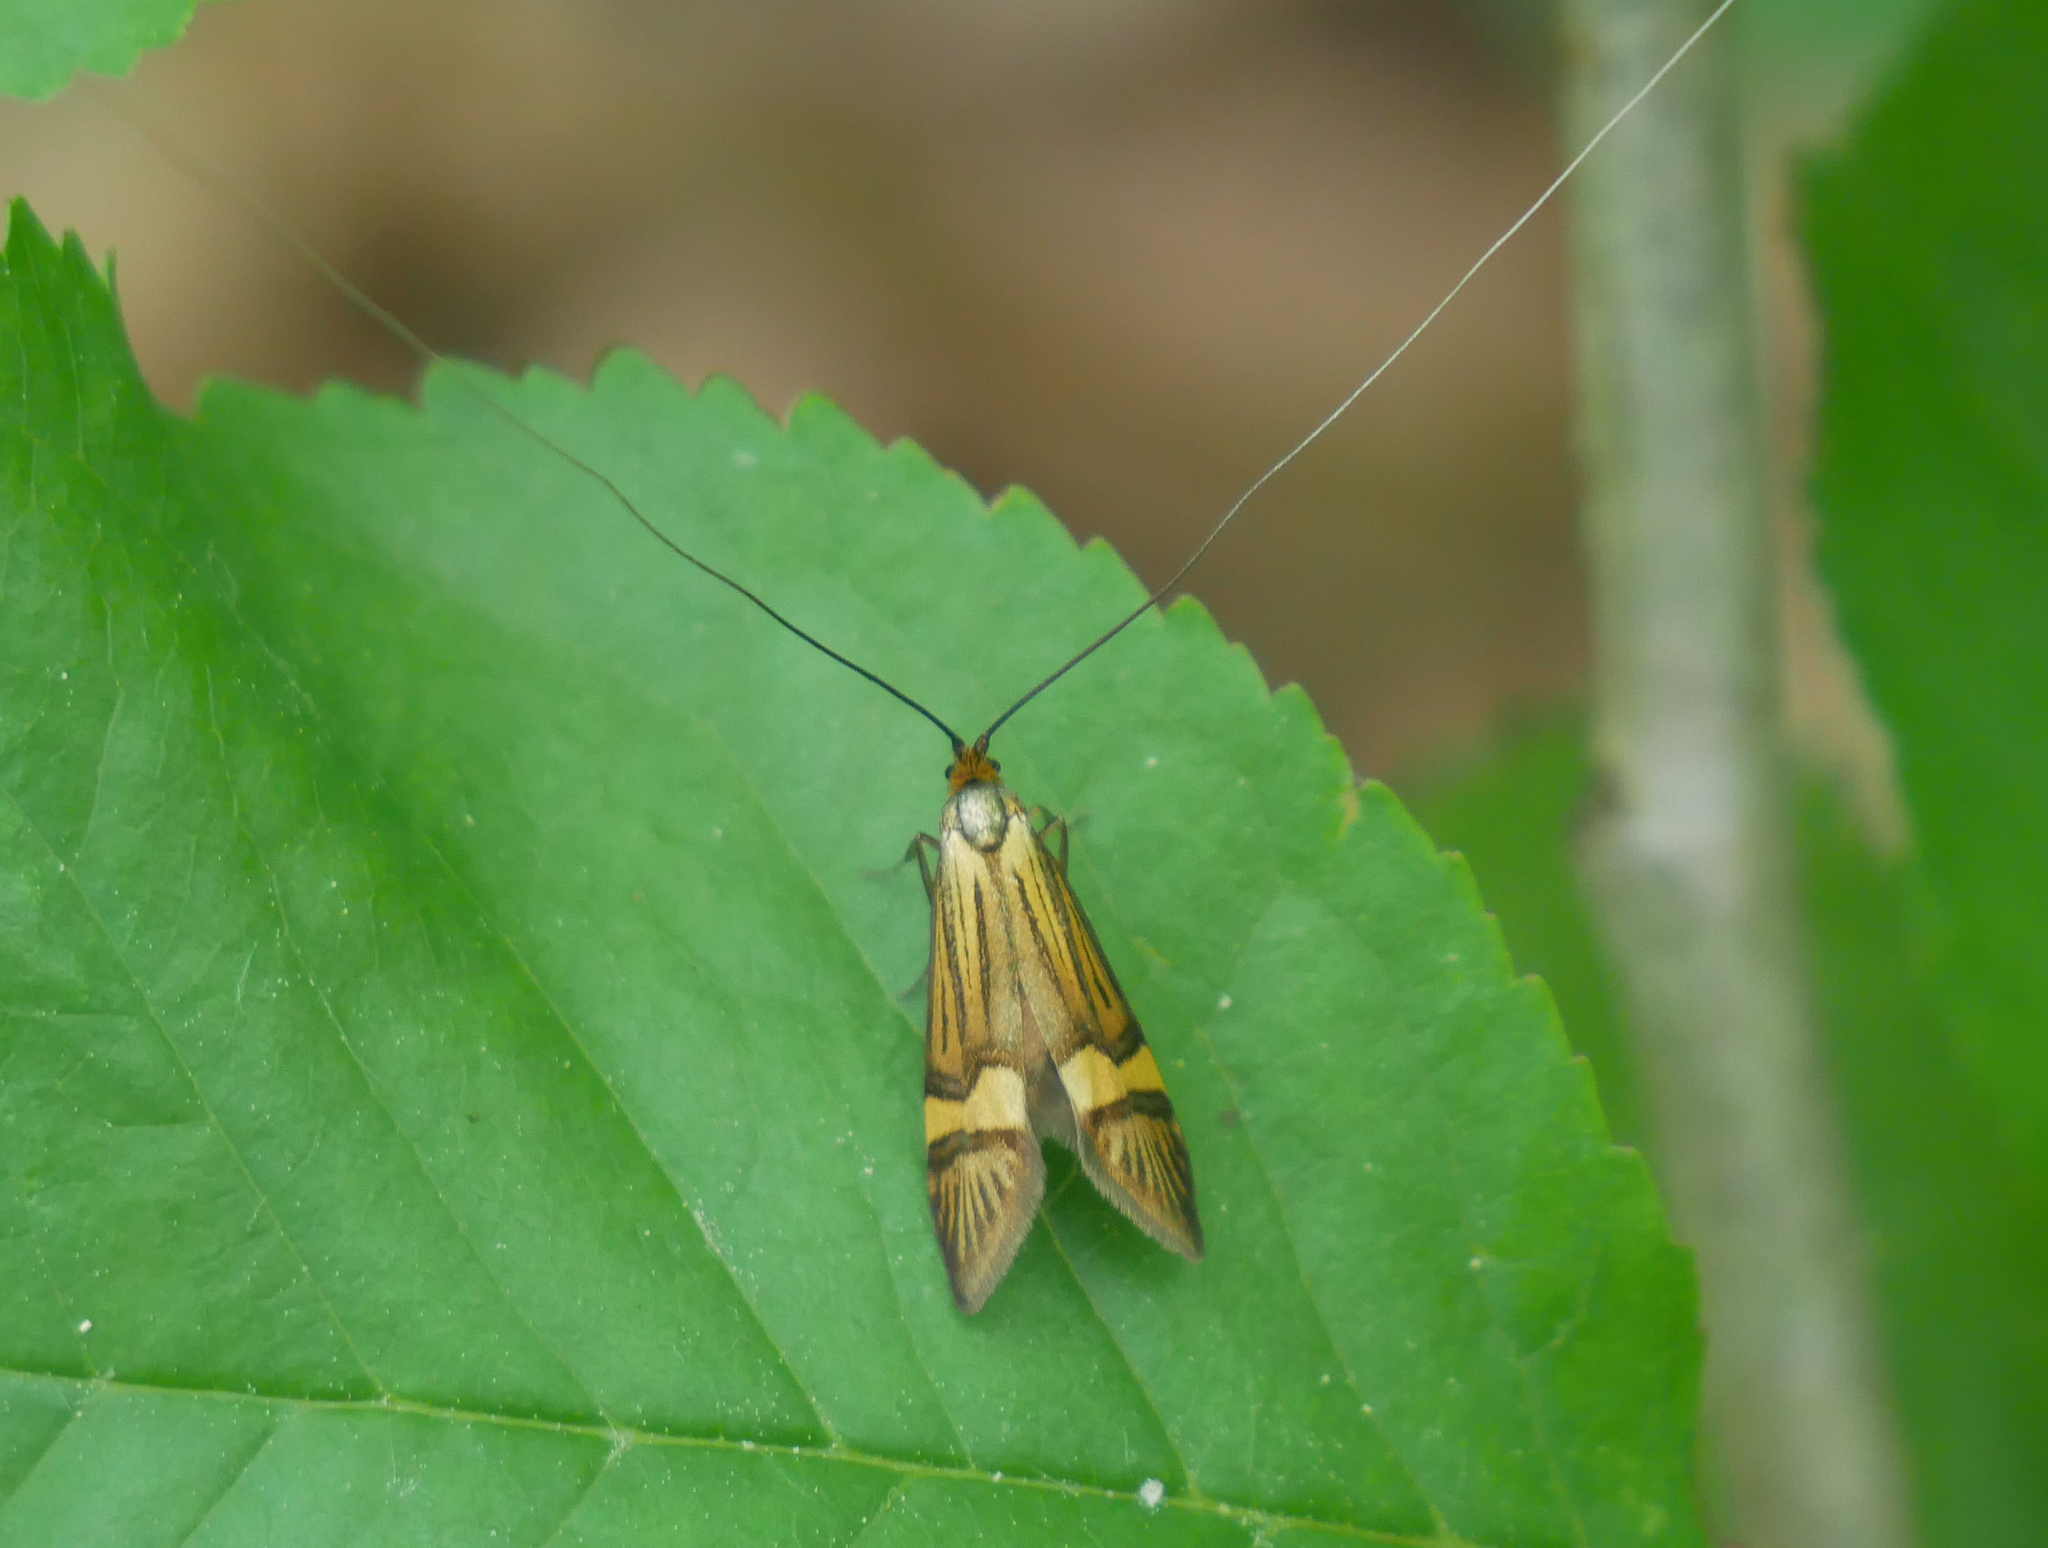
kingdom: Animalia
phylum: Arthropoda
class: Insecta
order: Lepidoptera
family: Adelidae
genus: Nemophora
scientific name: Nemophora
